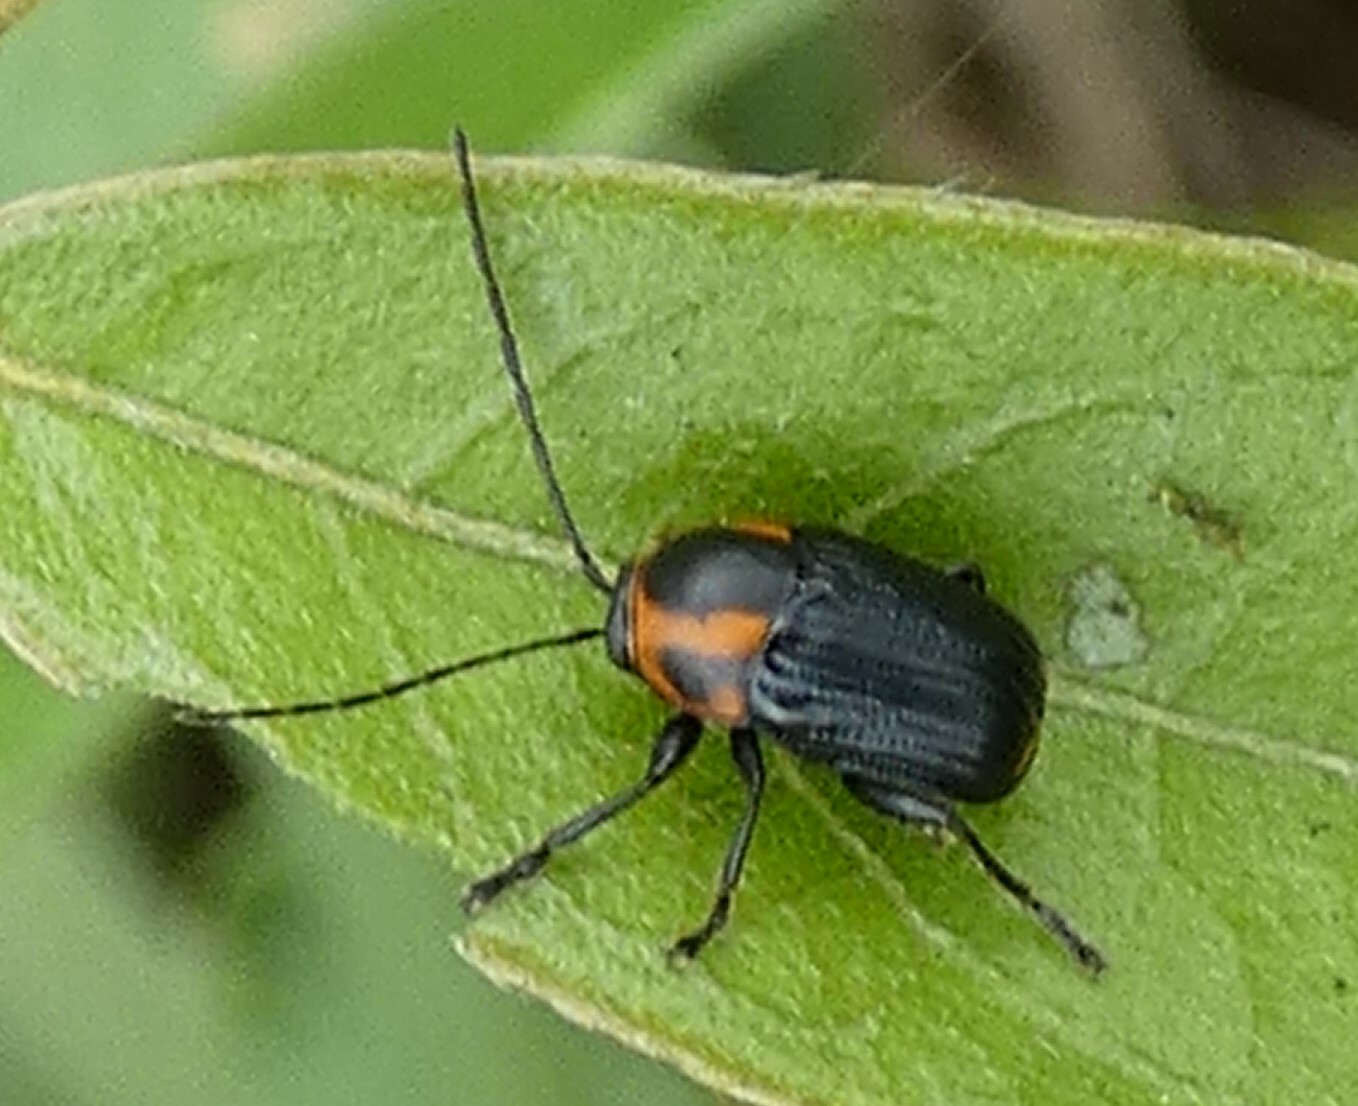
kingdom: Animalia
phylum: Arthropoda
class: Insecta
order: Coleoptera
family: Chrysomelidae
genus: Bassareus
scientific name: Bassareus lituratus
